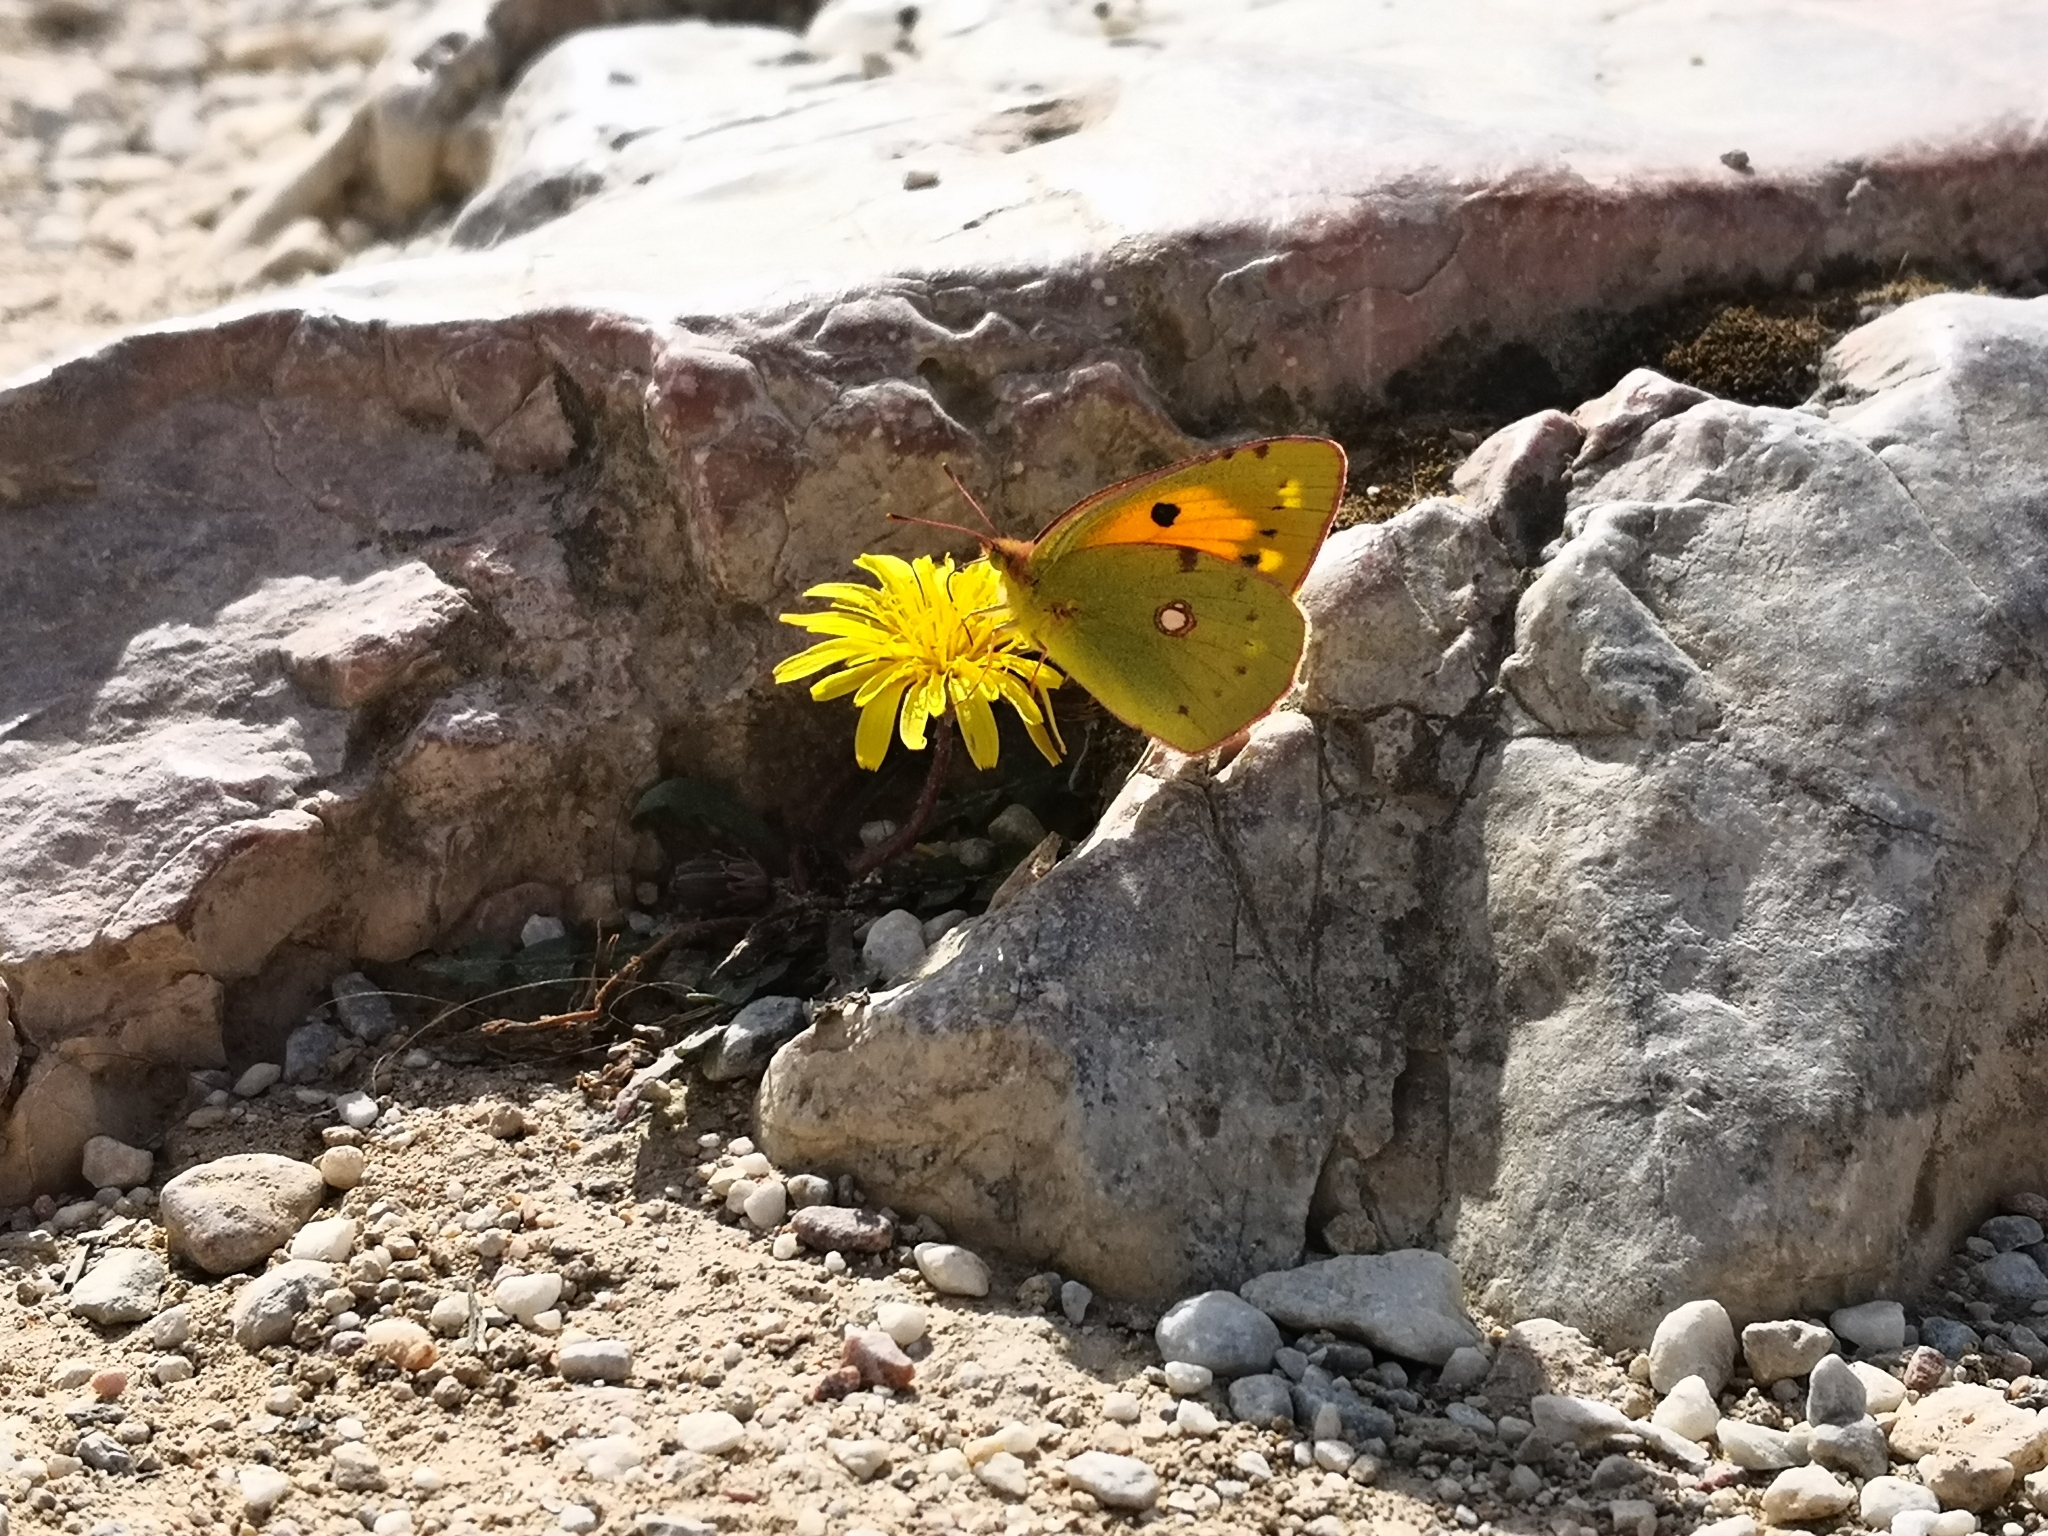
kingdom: Animalia
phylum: Arthropoda
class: Insecta
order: Lepidoptera
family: Pieridae
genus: Colias
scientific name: Colias croceus
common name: Clouded yellow
